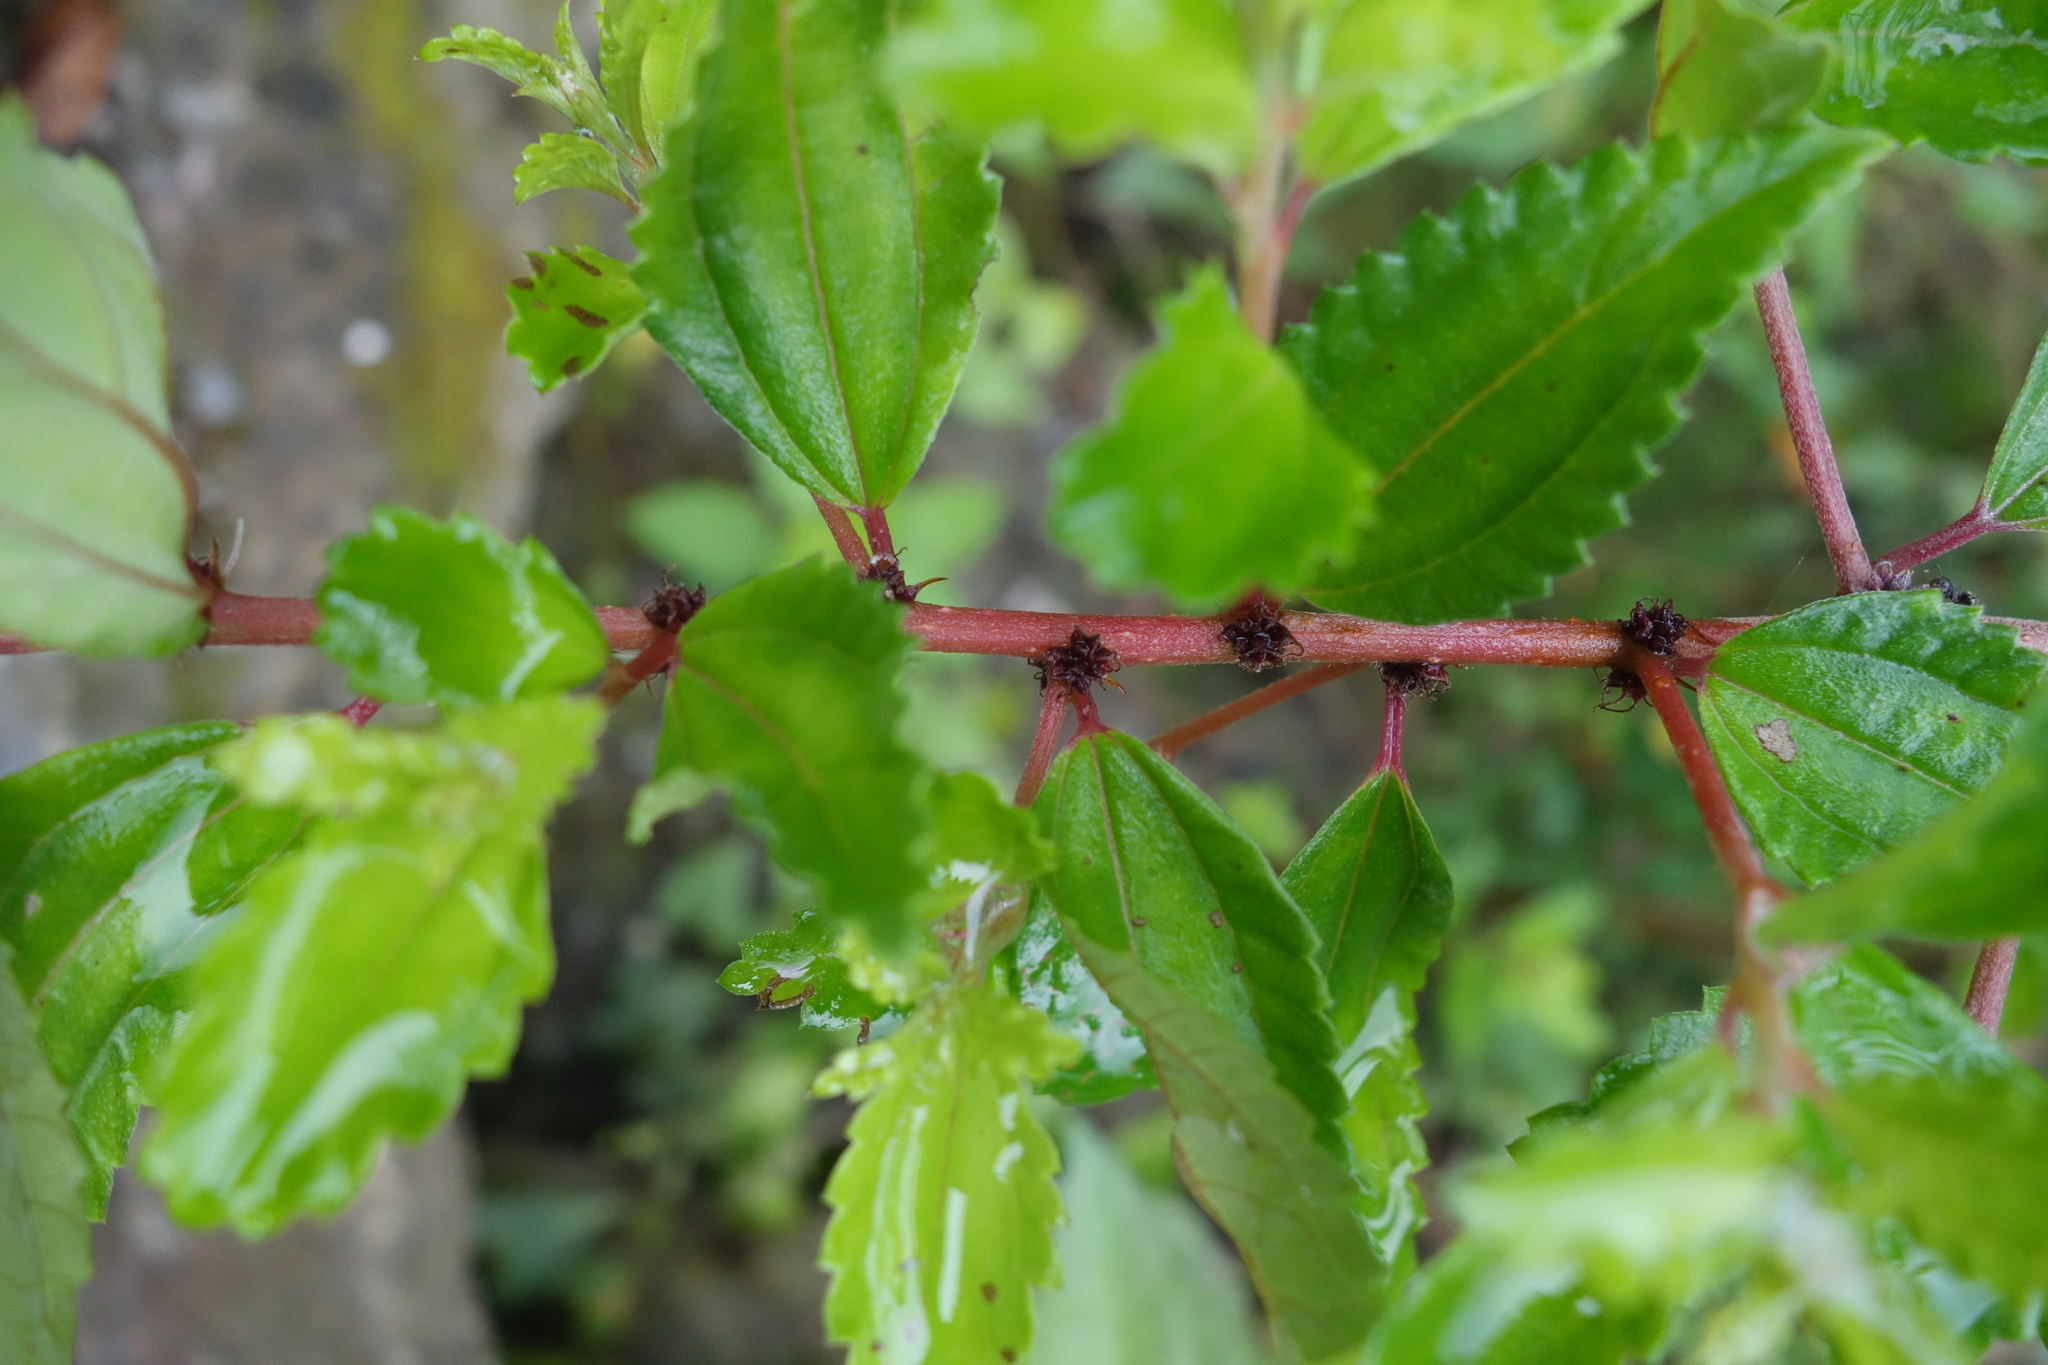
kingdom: Plantae
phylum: Tracheophyta
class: Magnoliopsida
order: Rosales
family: Urticaceae
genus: Pouzolzia
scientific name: Pouzolzia sanguinea
